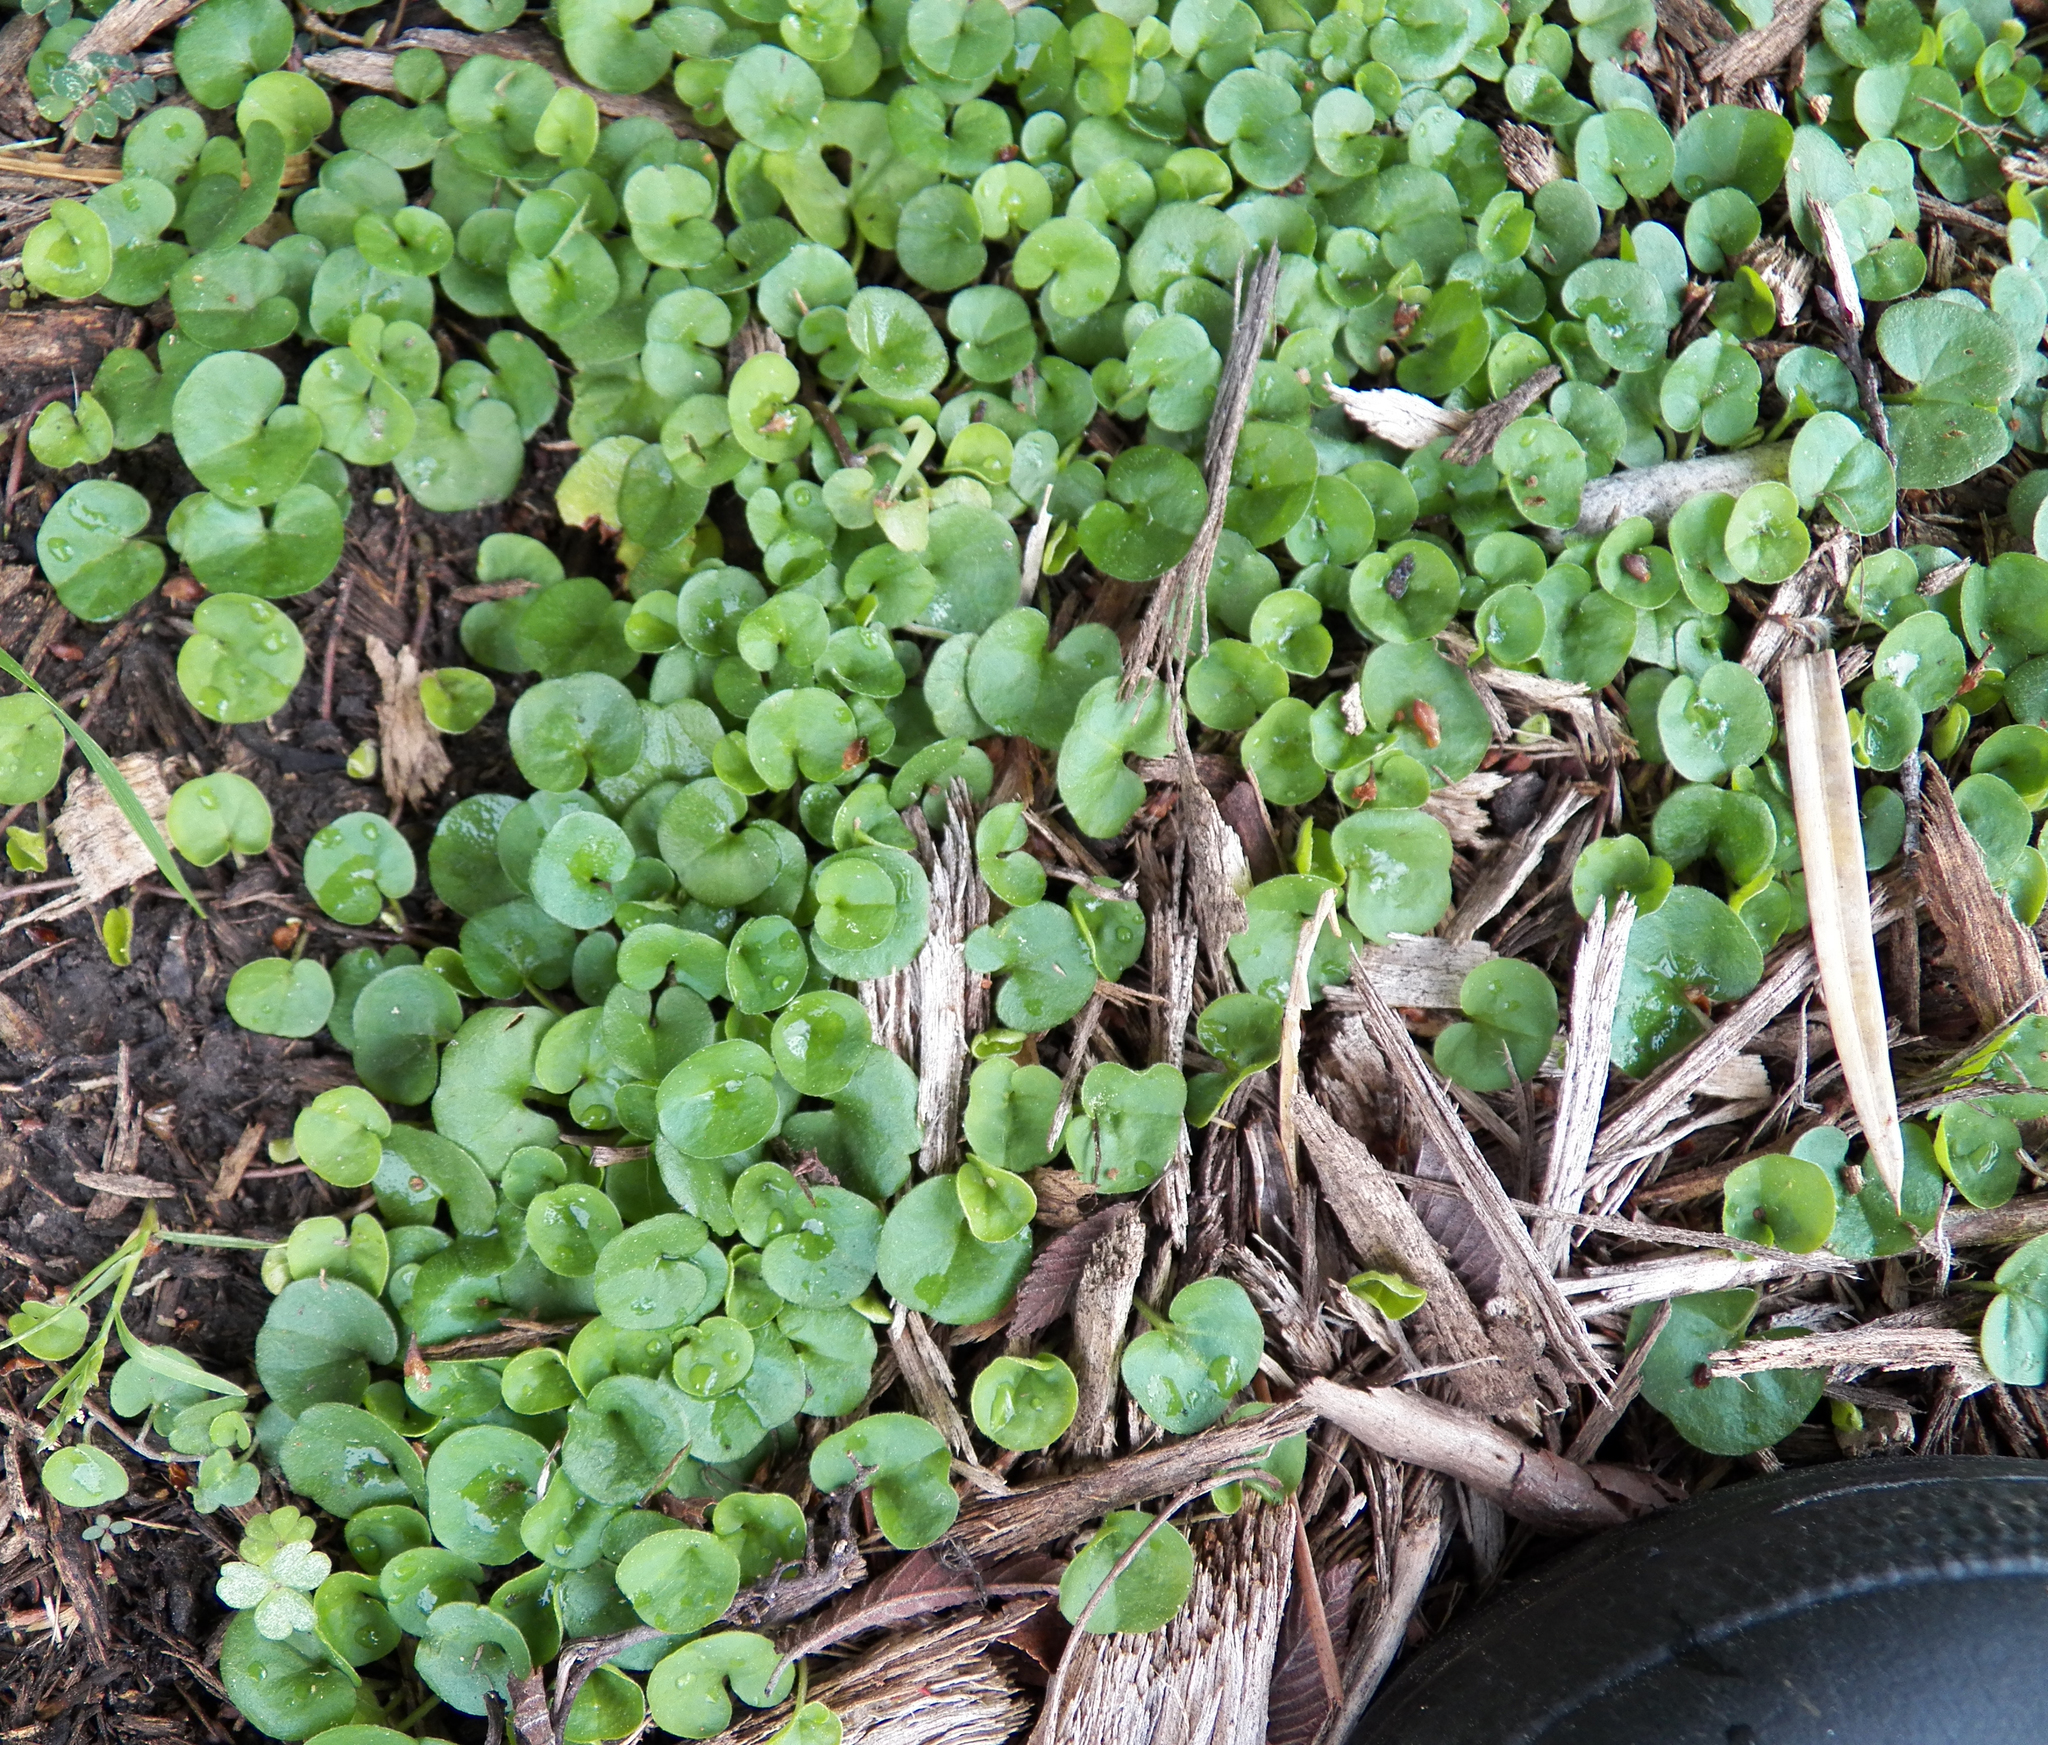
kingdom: Plantae
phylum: Tracheophyta
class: Magnoliopsida
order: Solanales
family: Convolvulaceae
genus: Dichondra
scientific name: Dichondra carolinensis
